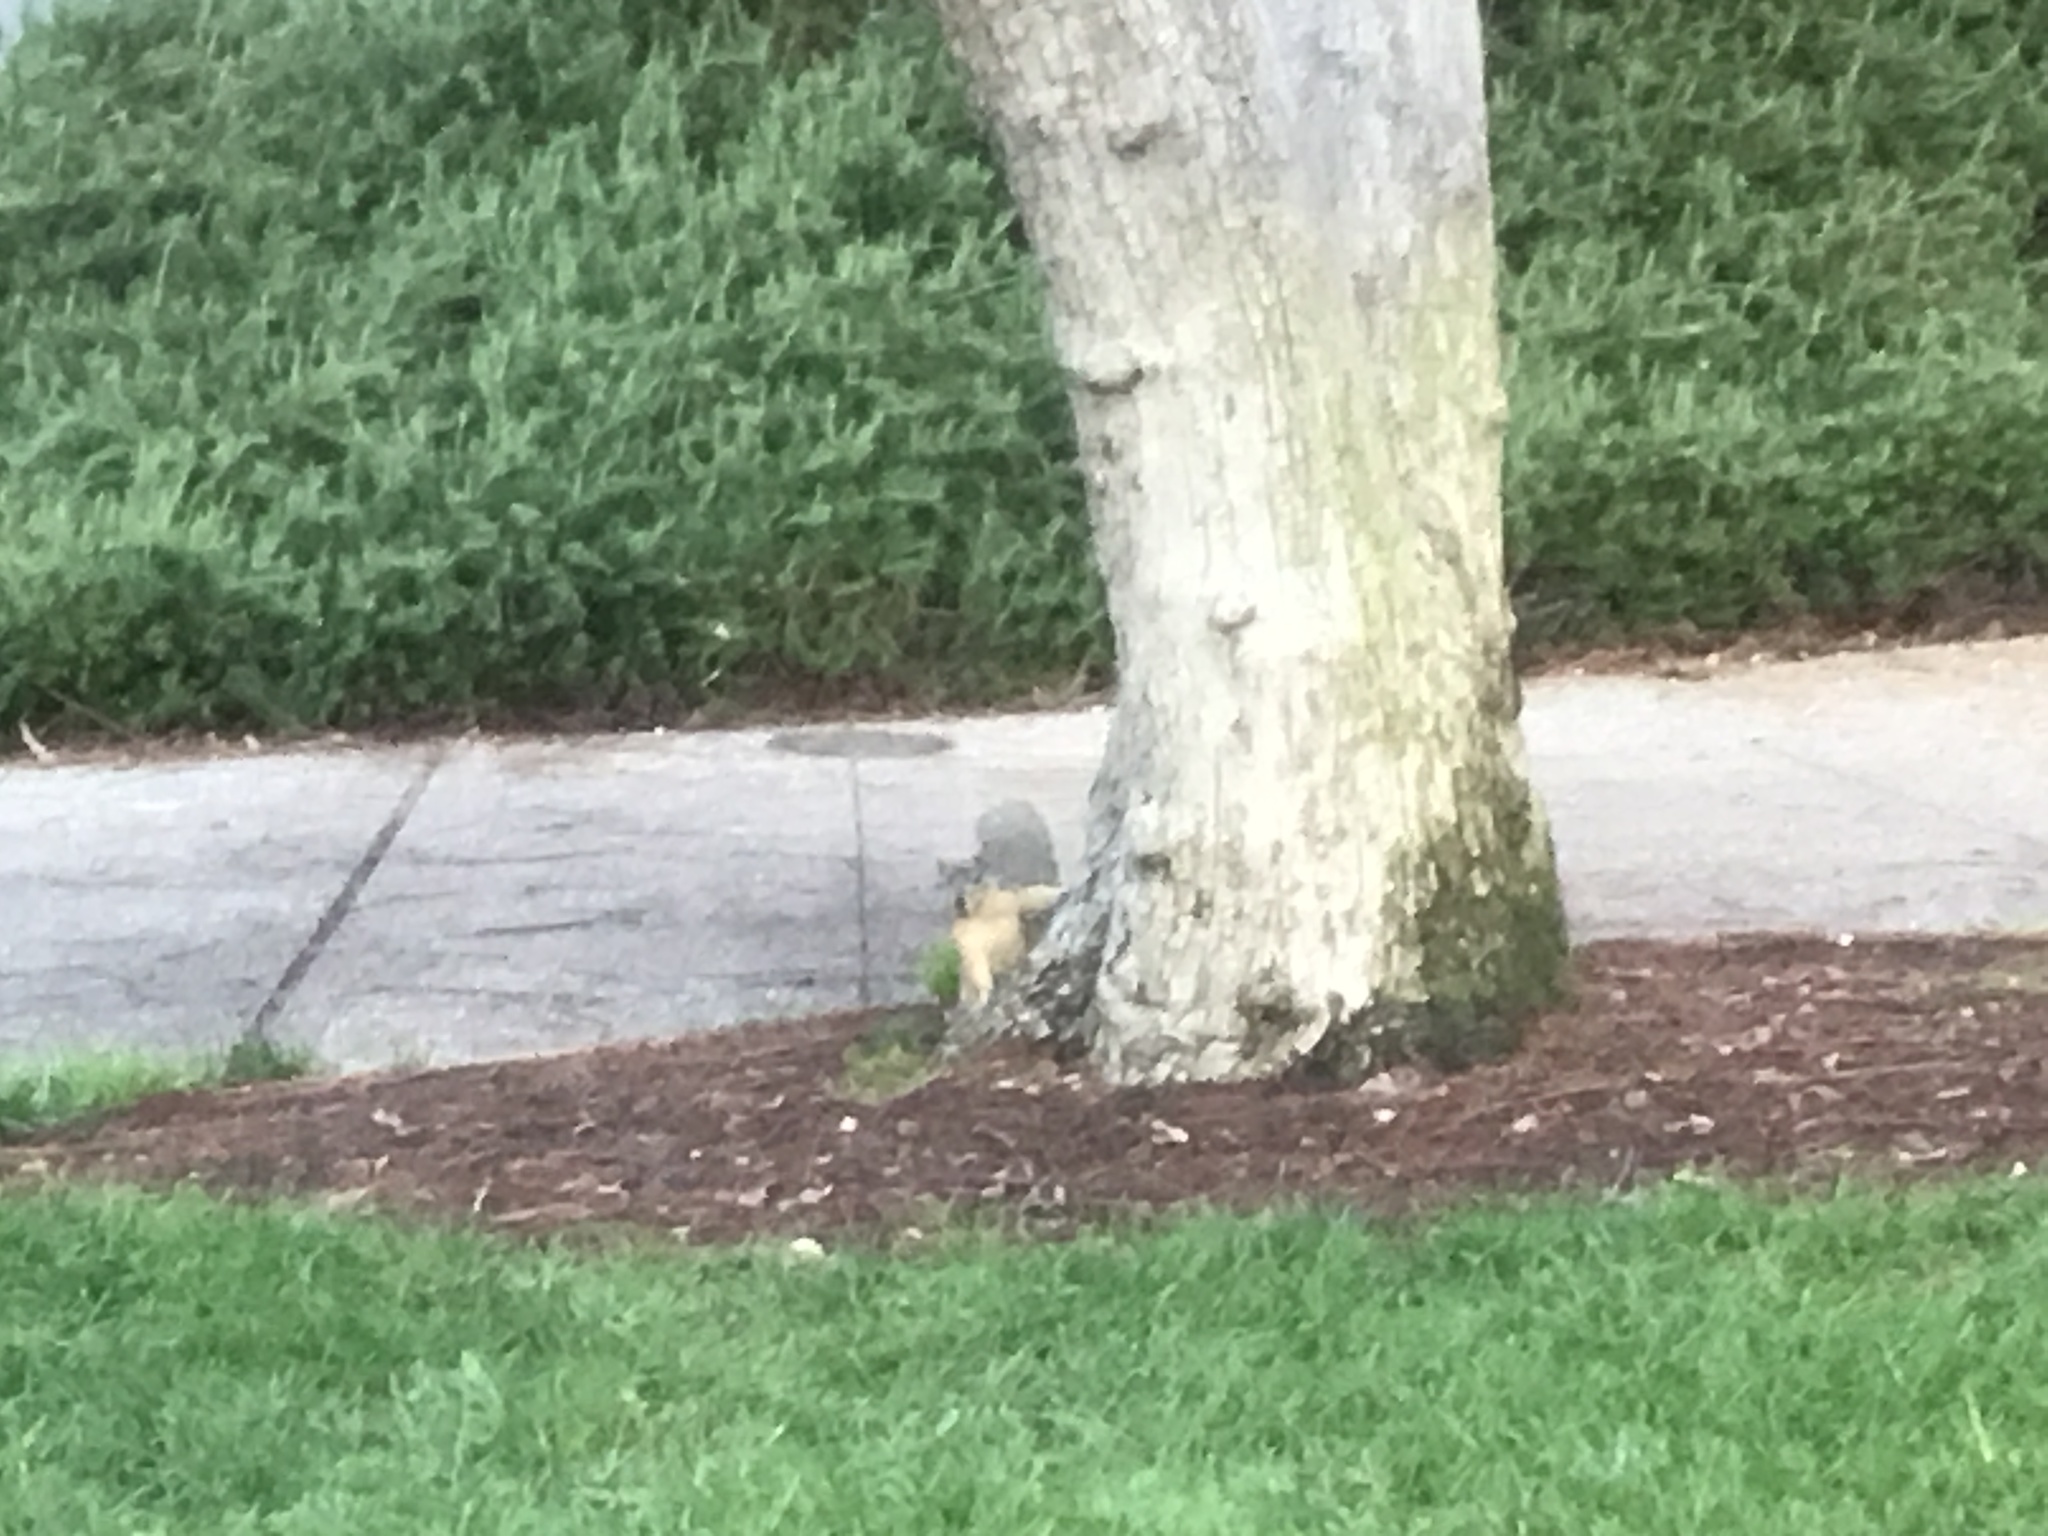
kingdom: Animalia
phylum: Chordata
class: Mammalia
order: Rodentia
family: Sciuridae
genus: Sciurus
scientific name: Sciurus niger
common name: Fox squirrel
